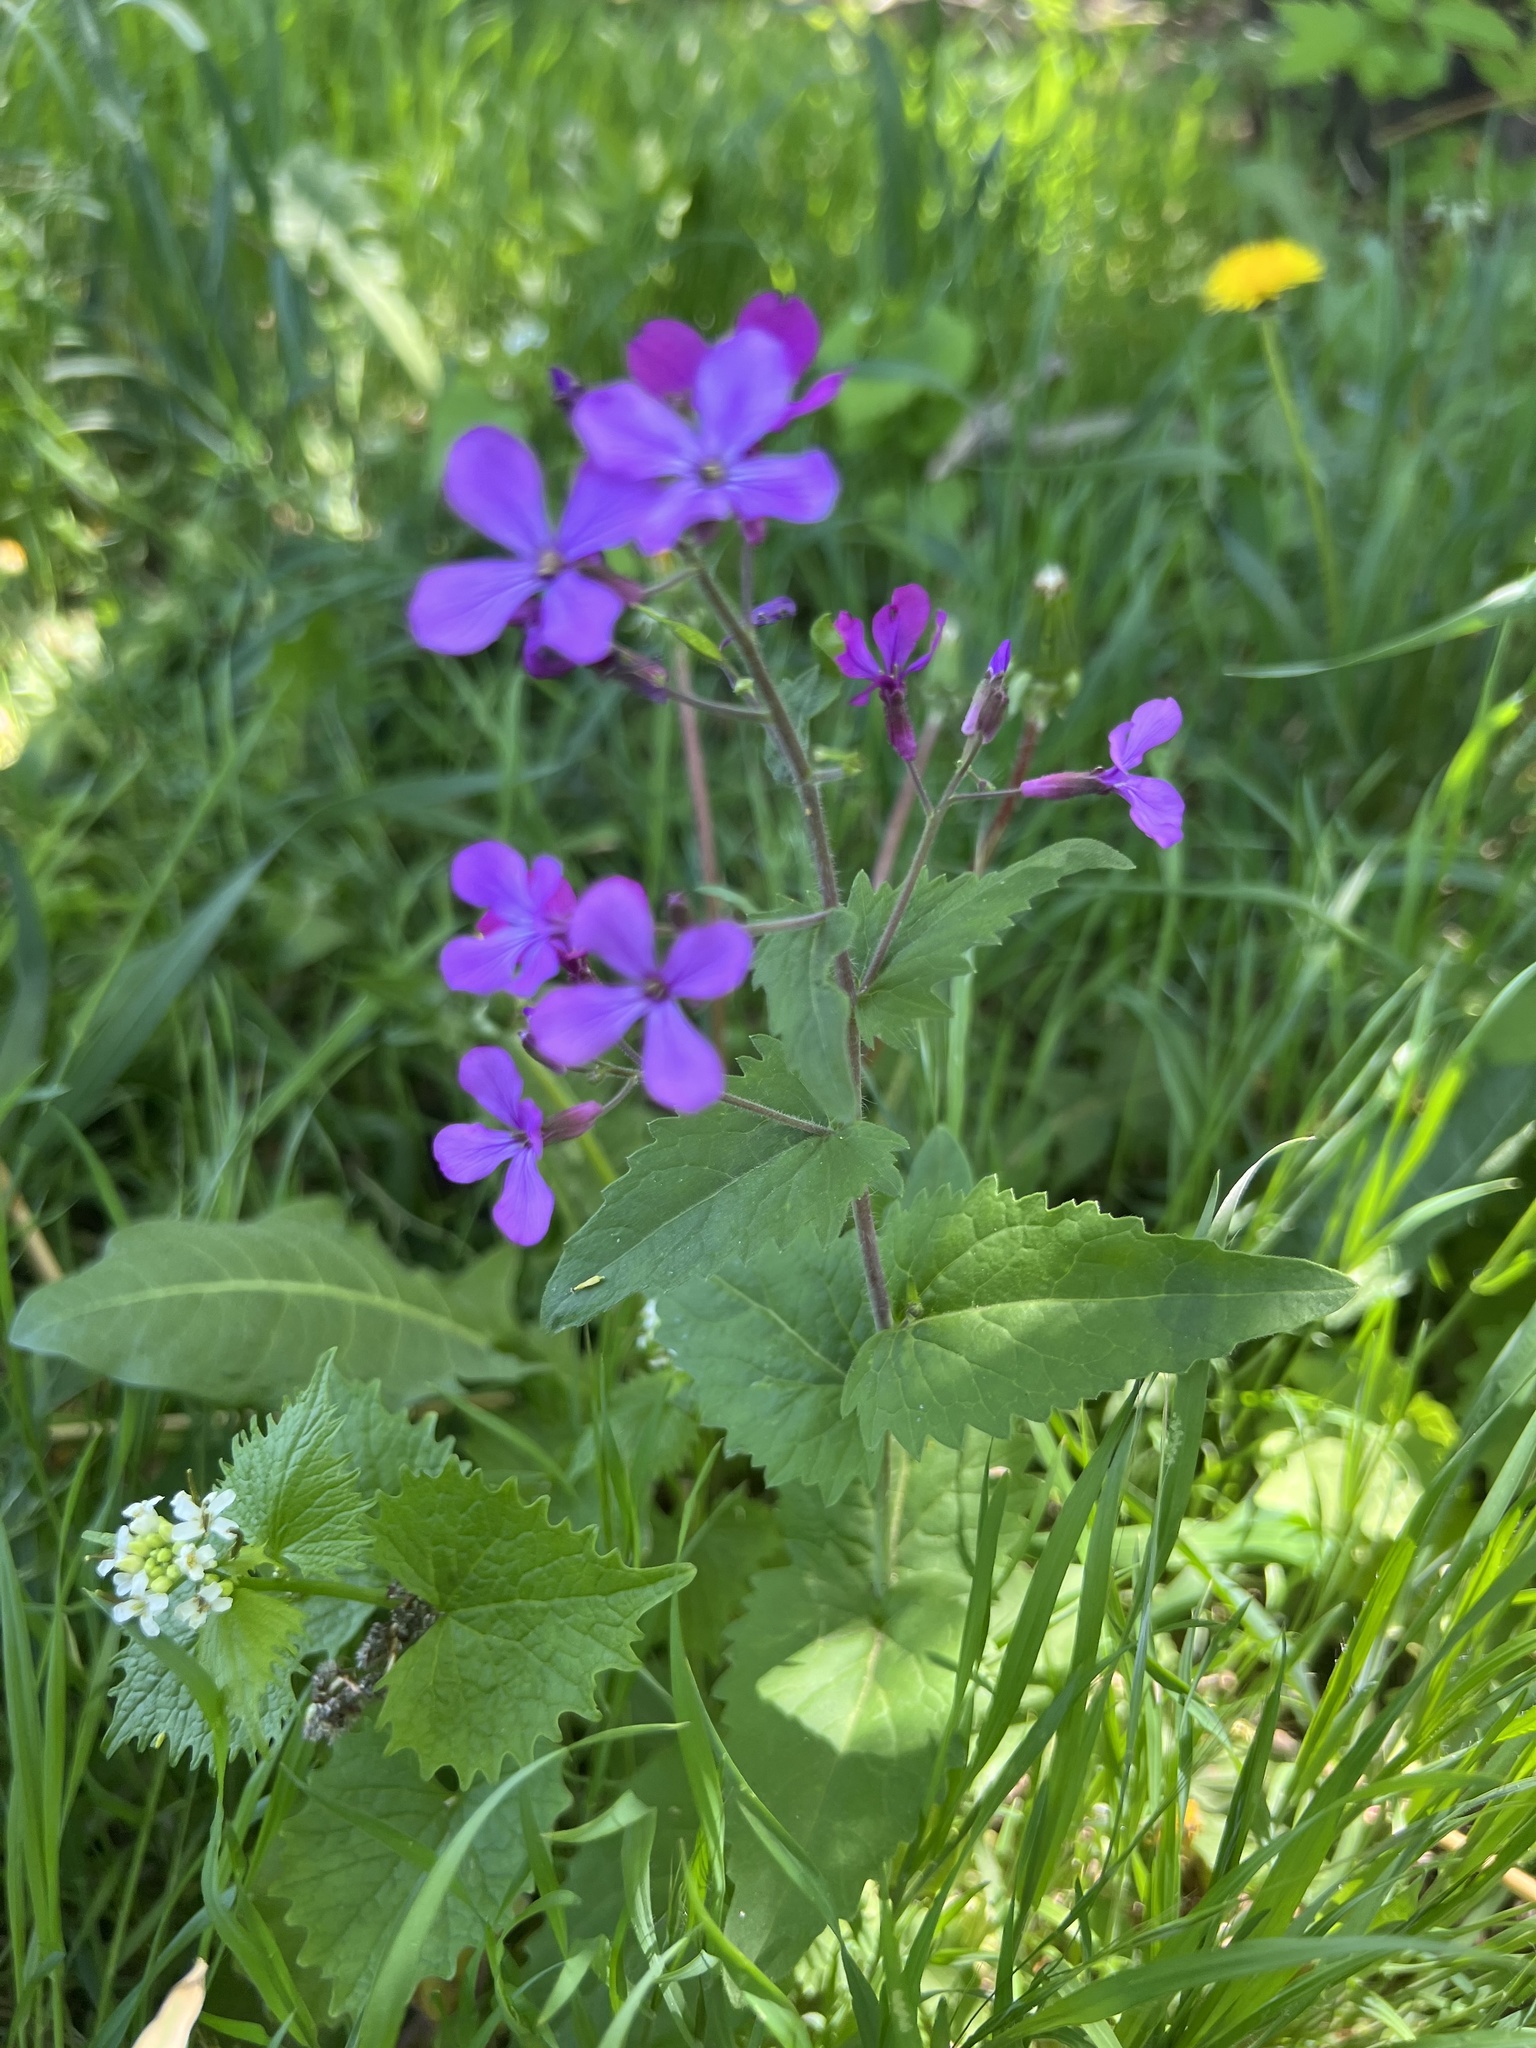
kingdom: Plantae
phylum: Tracheophyta
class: Magnoliopsida
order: Brassicales
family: Brassicaceae
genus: Lunaria
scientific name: Lunaria annua
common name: Honesty
